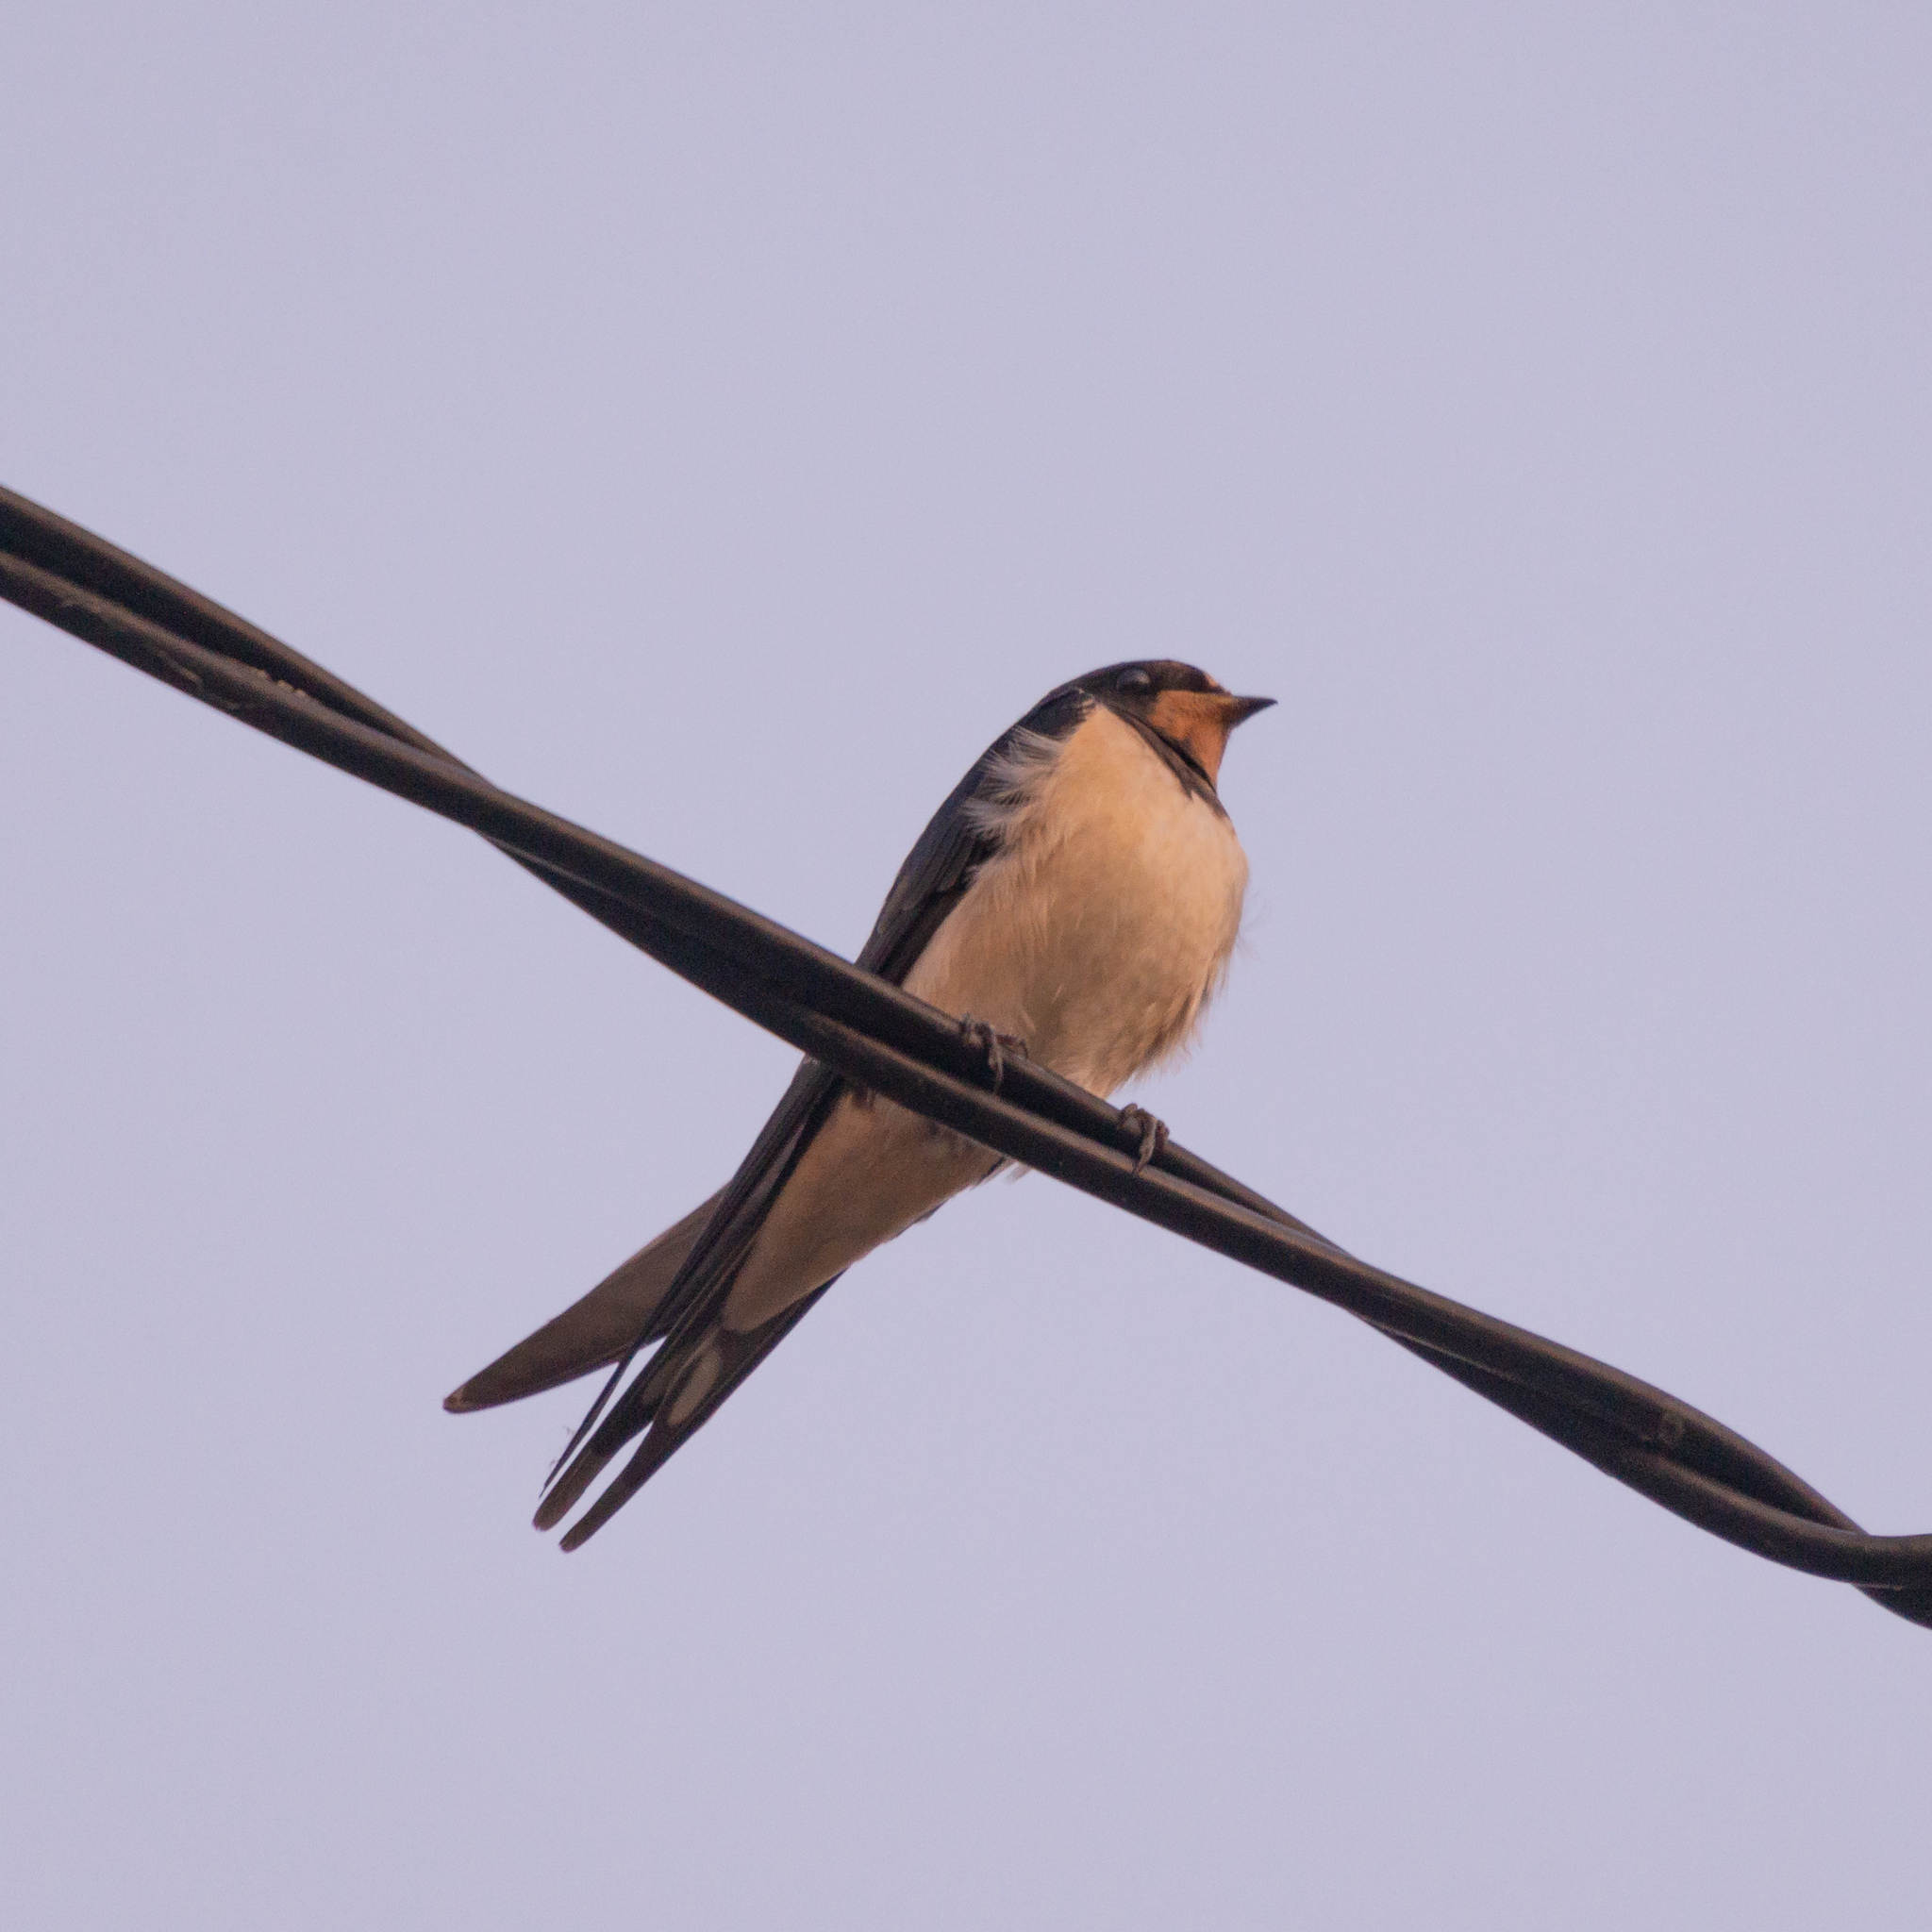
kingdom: Animalia
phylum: Chordata
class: Aves
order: Passeriformes
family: Hirundinidae
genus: Hirundo
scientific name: Hirundo rustica
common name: Barn swallow
